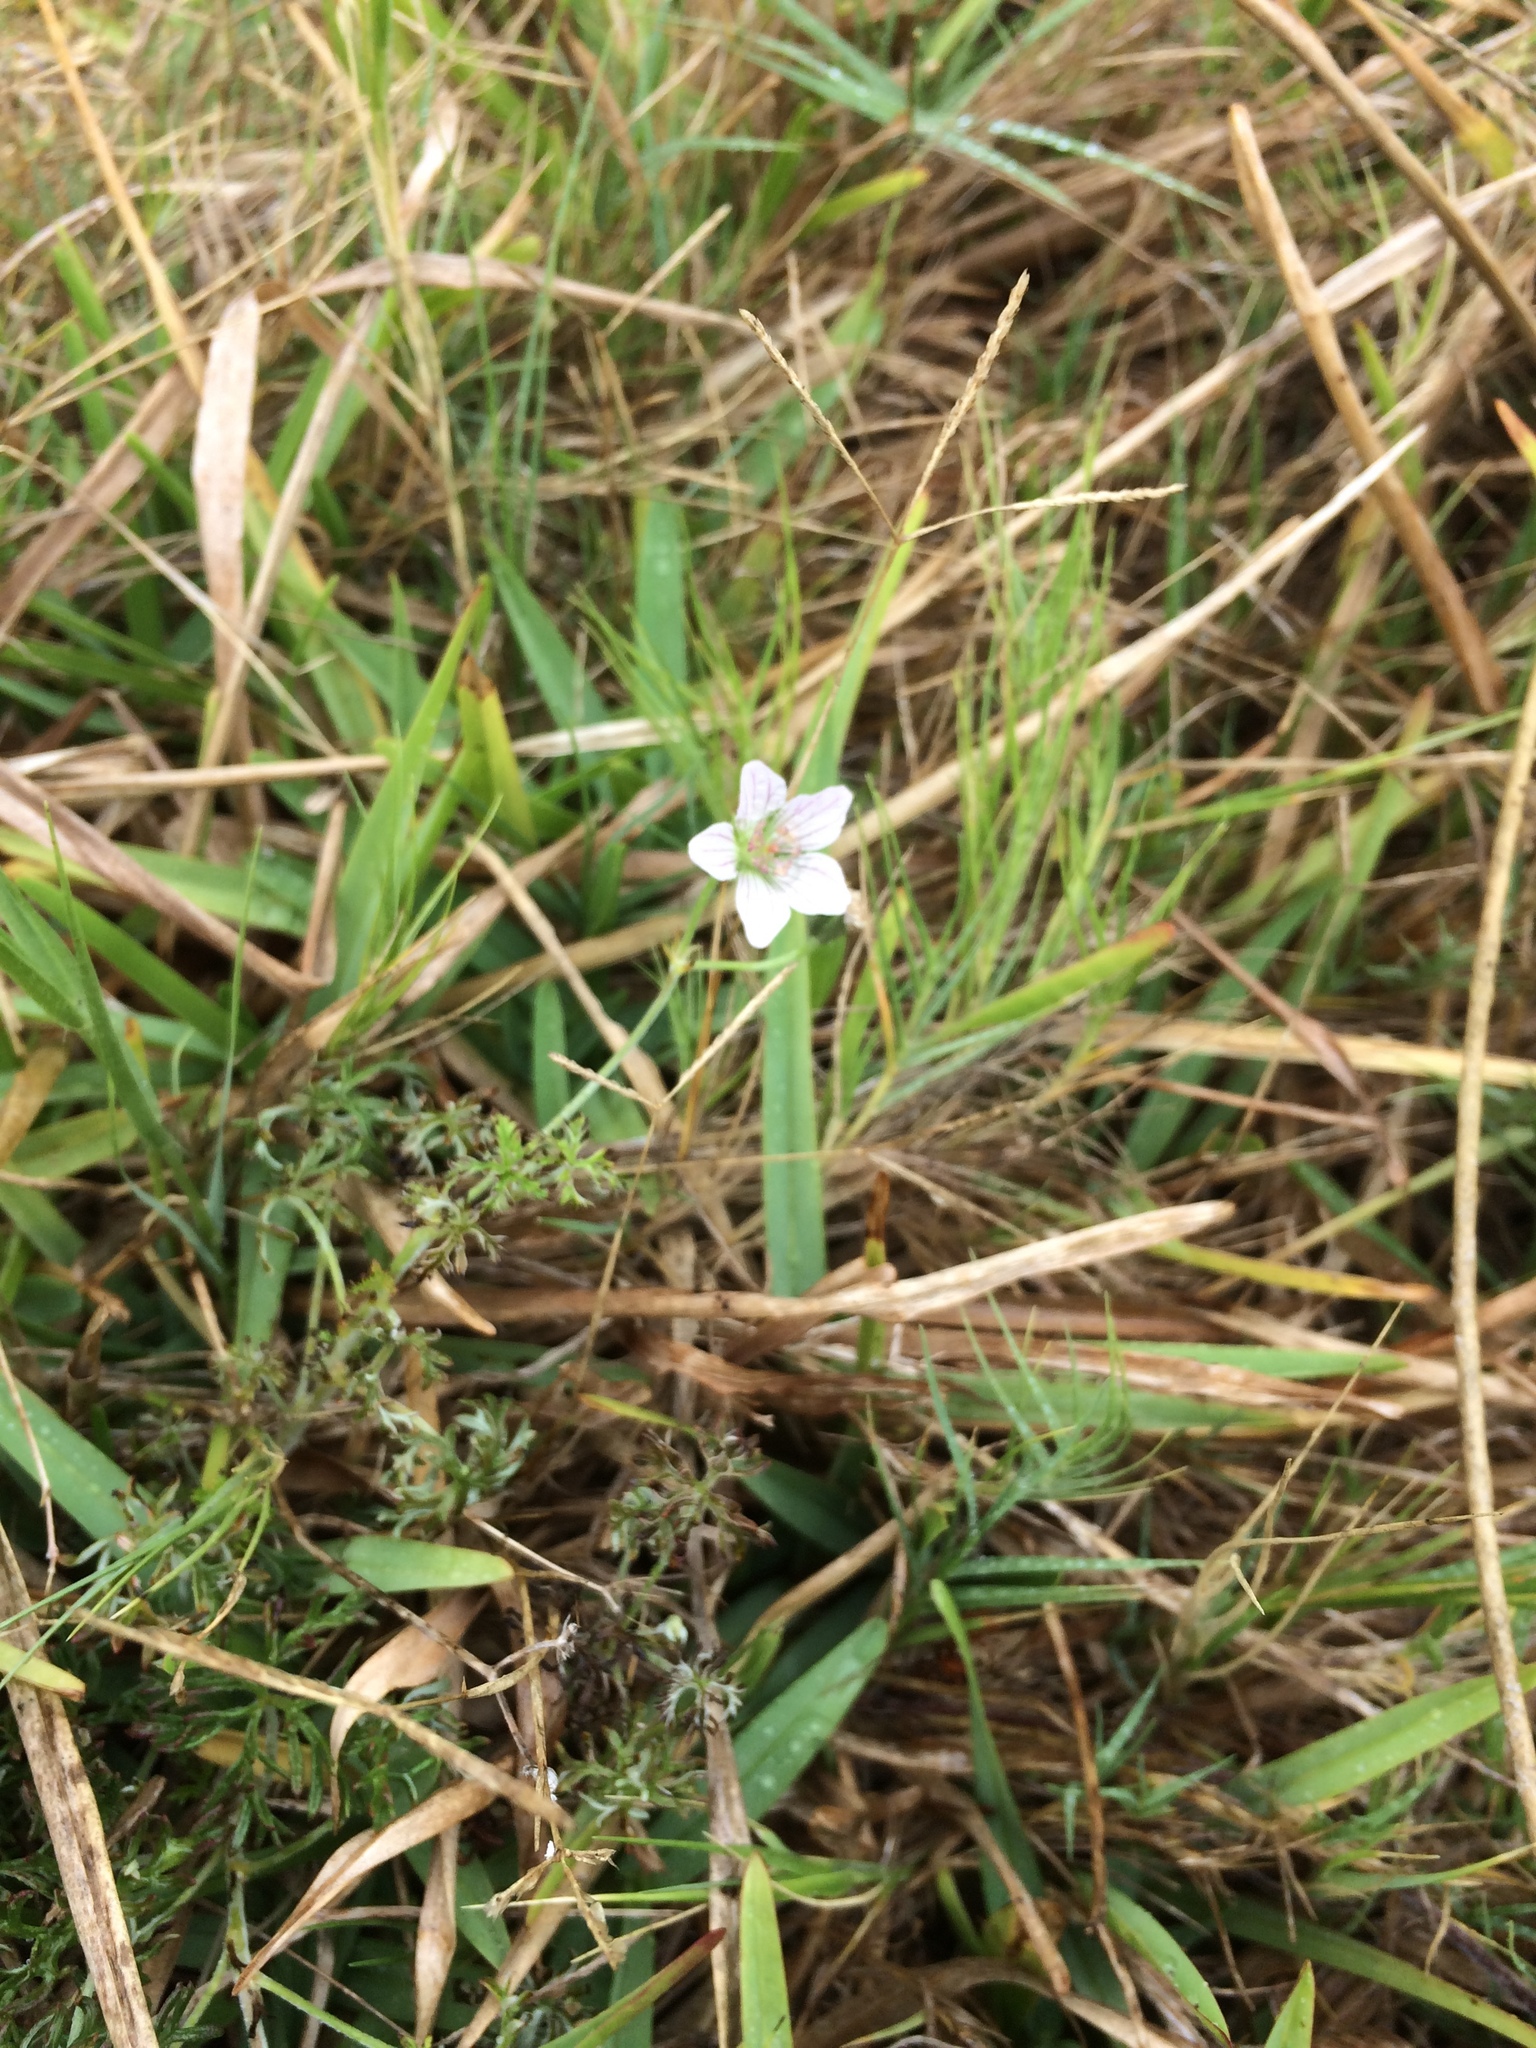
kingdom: Plantae
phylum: Tracheophyta
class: Magnoliopsida
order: Geraniales
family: Geraniaceae
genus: Geranium
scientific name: Geranium incanum
